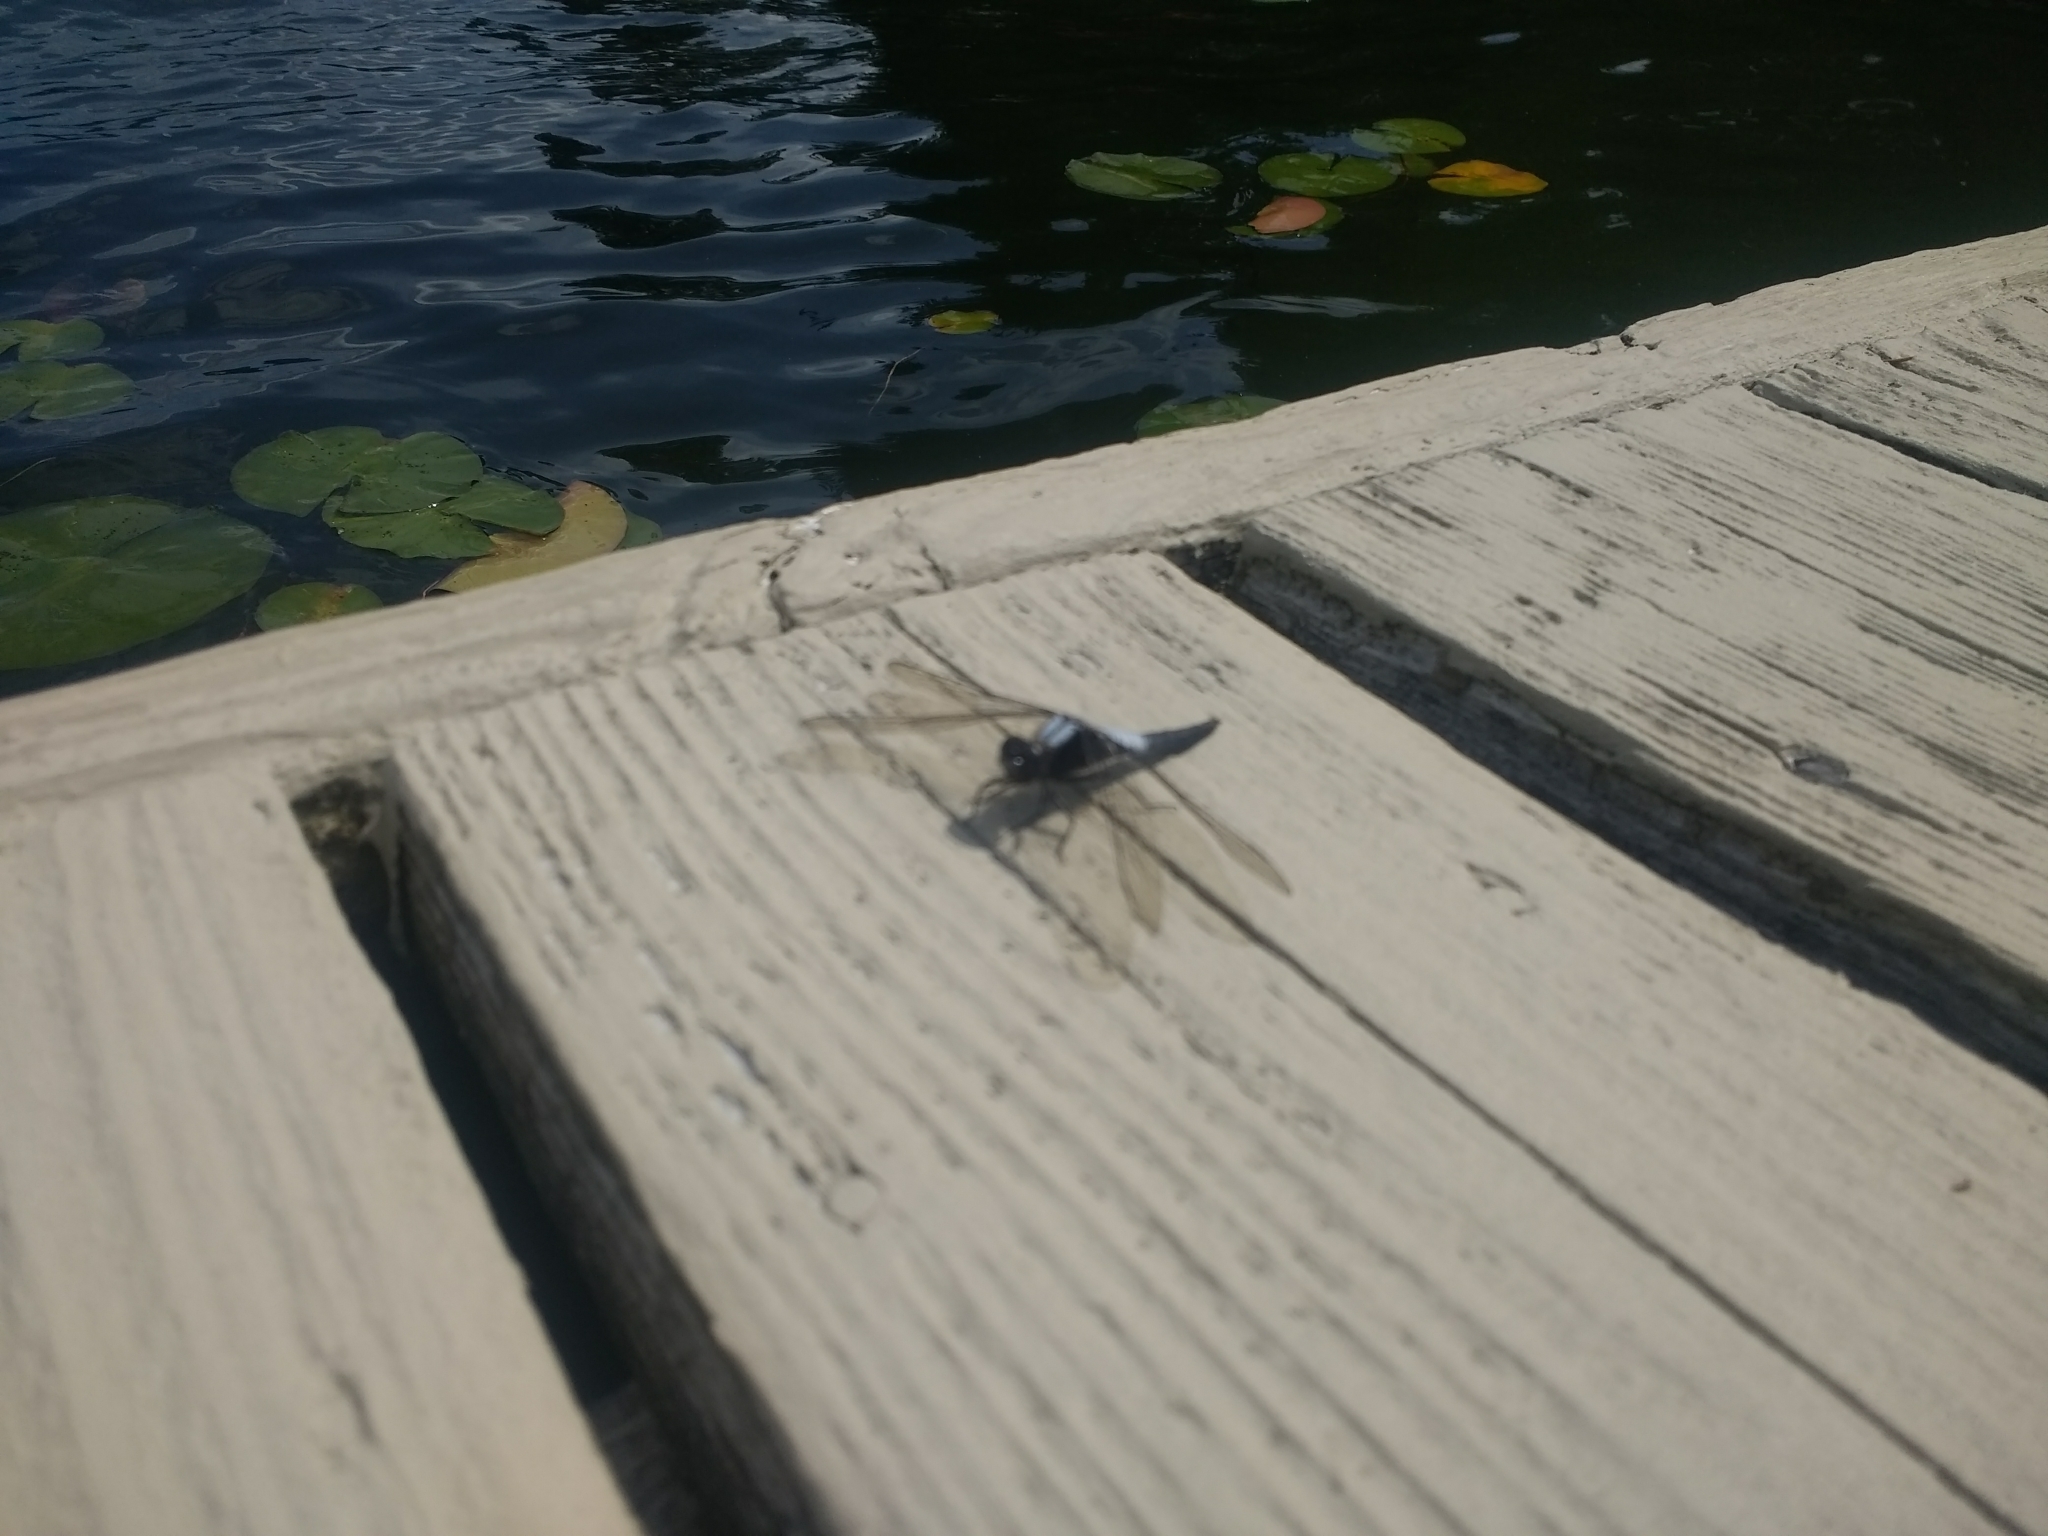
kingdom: Animalia
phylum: Arthropoda
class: Insecta
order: Odonata
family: Libellulidae
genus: Ladona
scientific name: Ladona julia
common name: Chalk-fronted corporal
